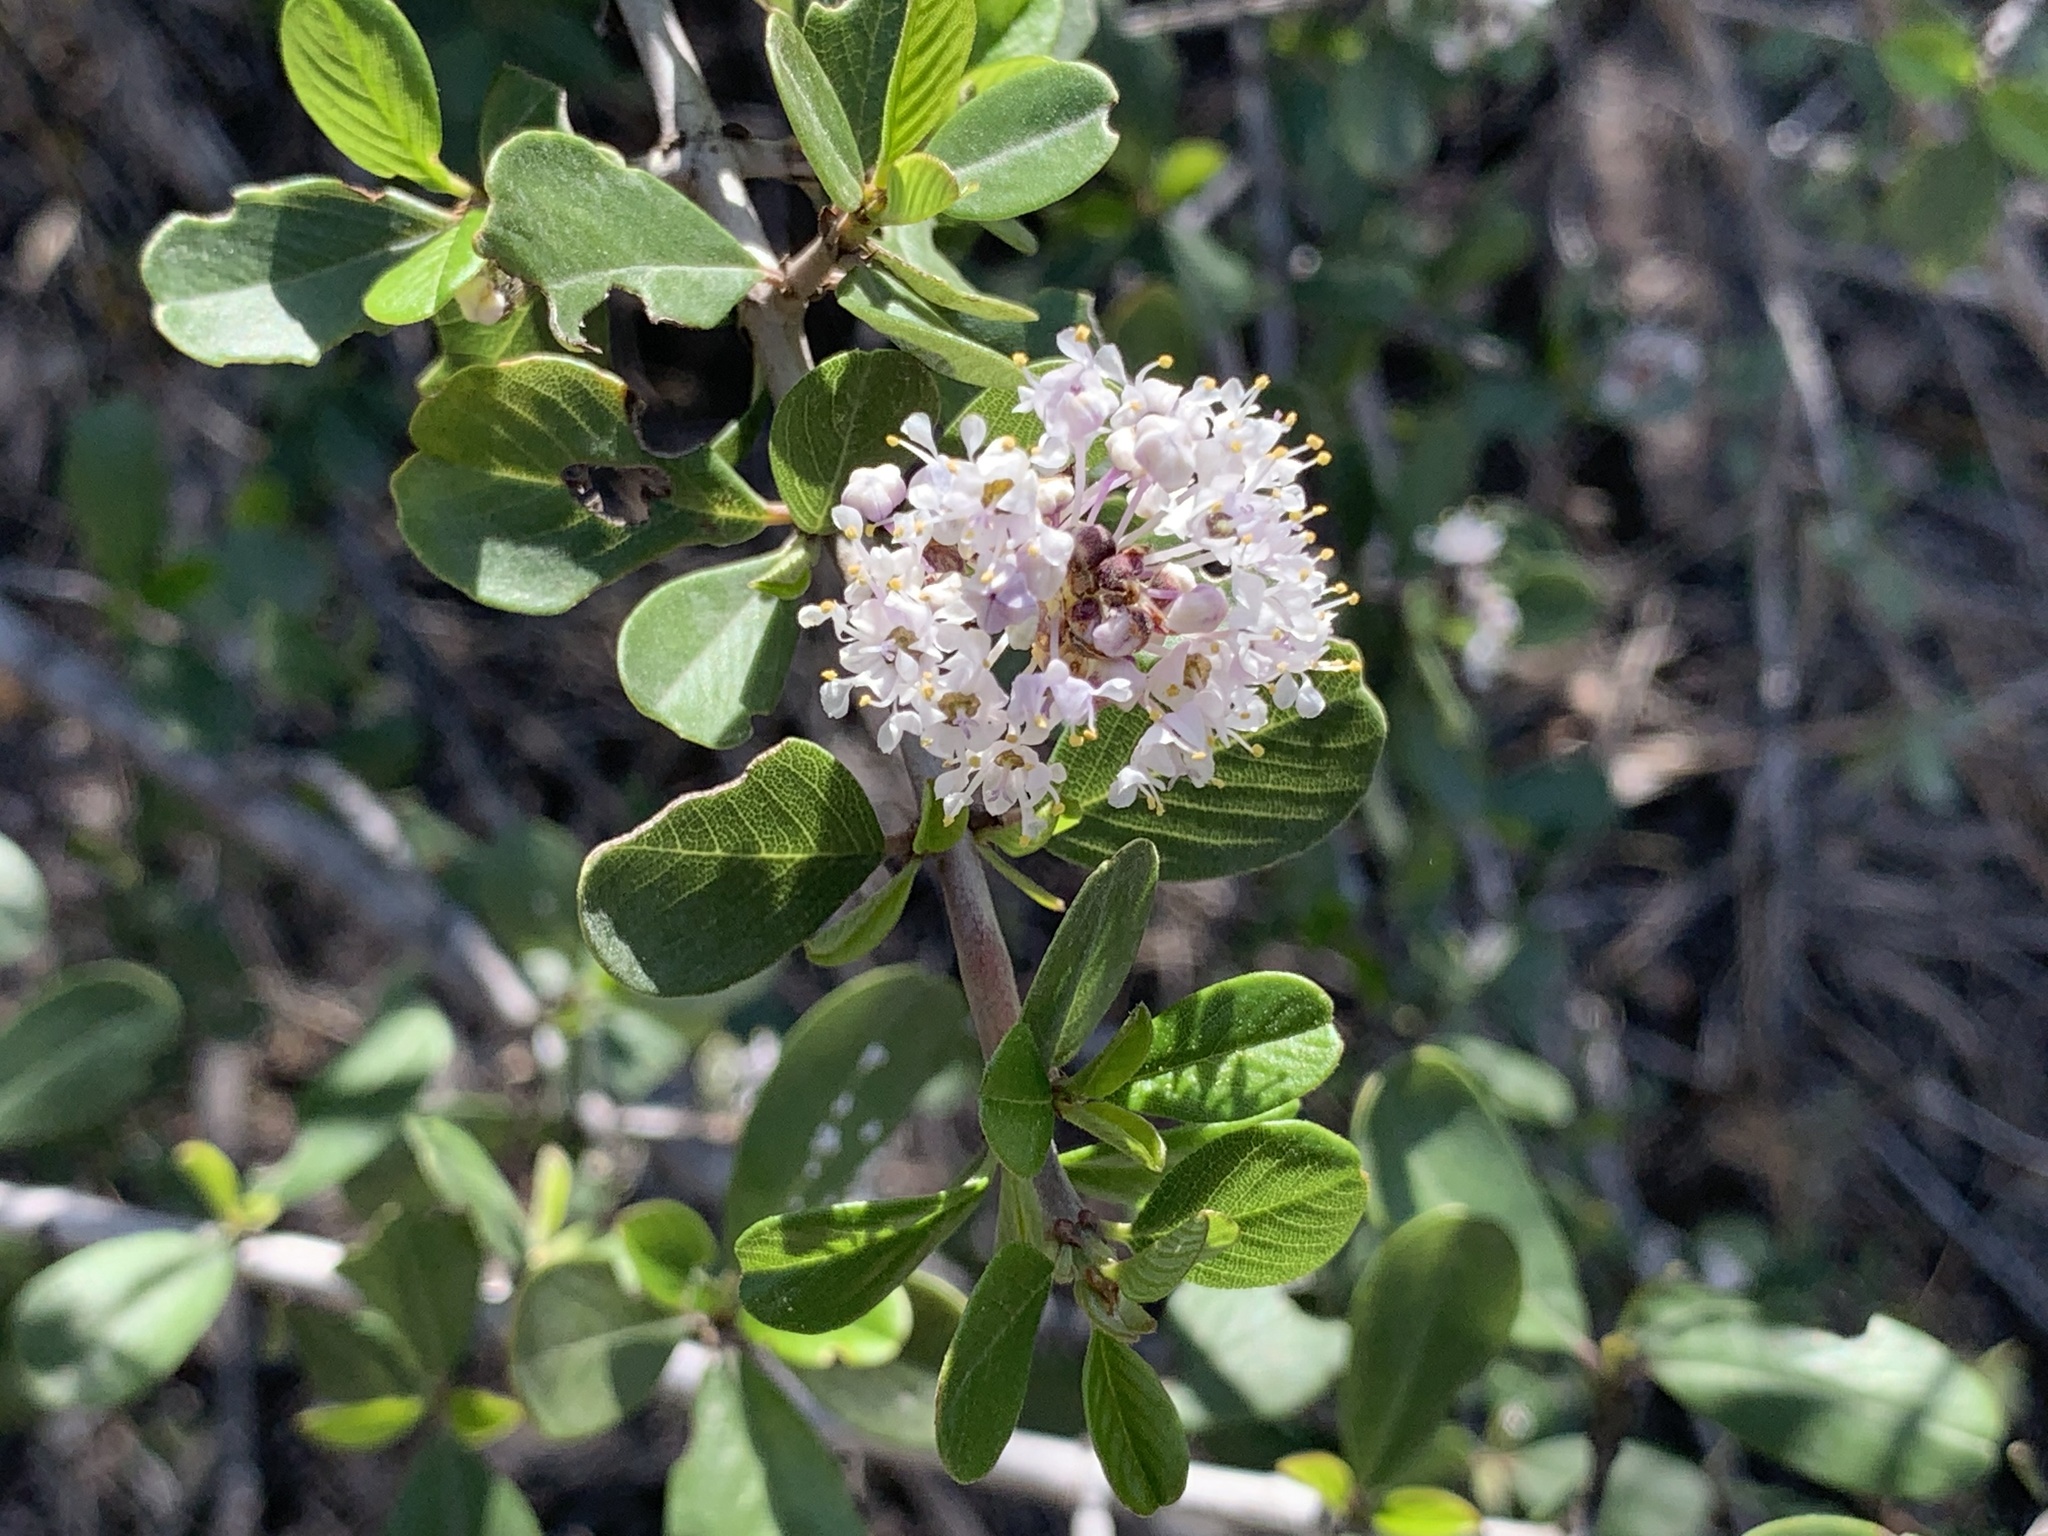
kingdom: Plantae
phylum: Tracheophyta
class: Magnoliopsida
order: Rosales
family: Rhamnaceae
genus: Ceanothus
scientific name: Ceanothus cuneatus
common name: Cuneate ceanothus
